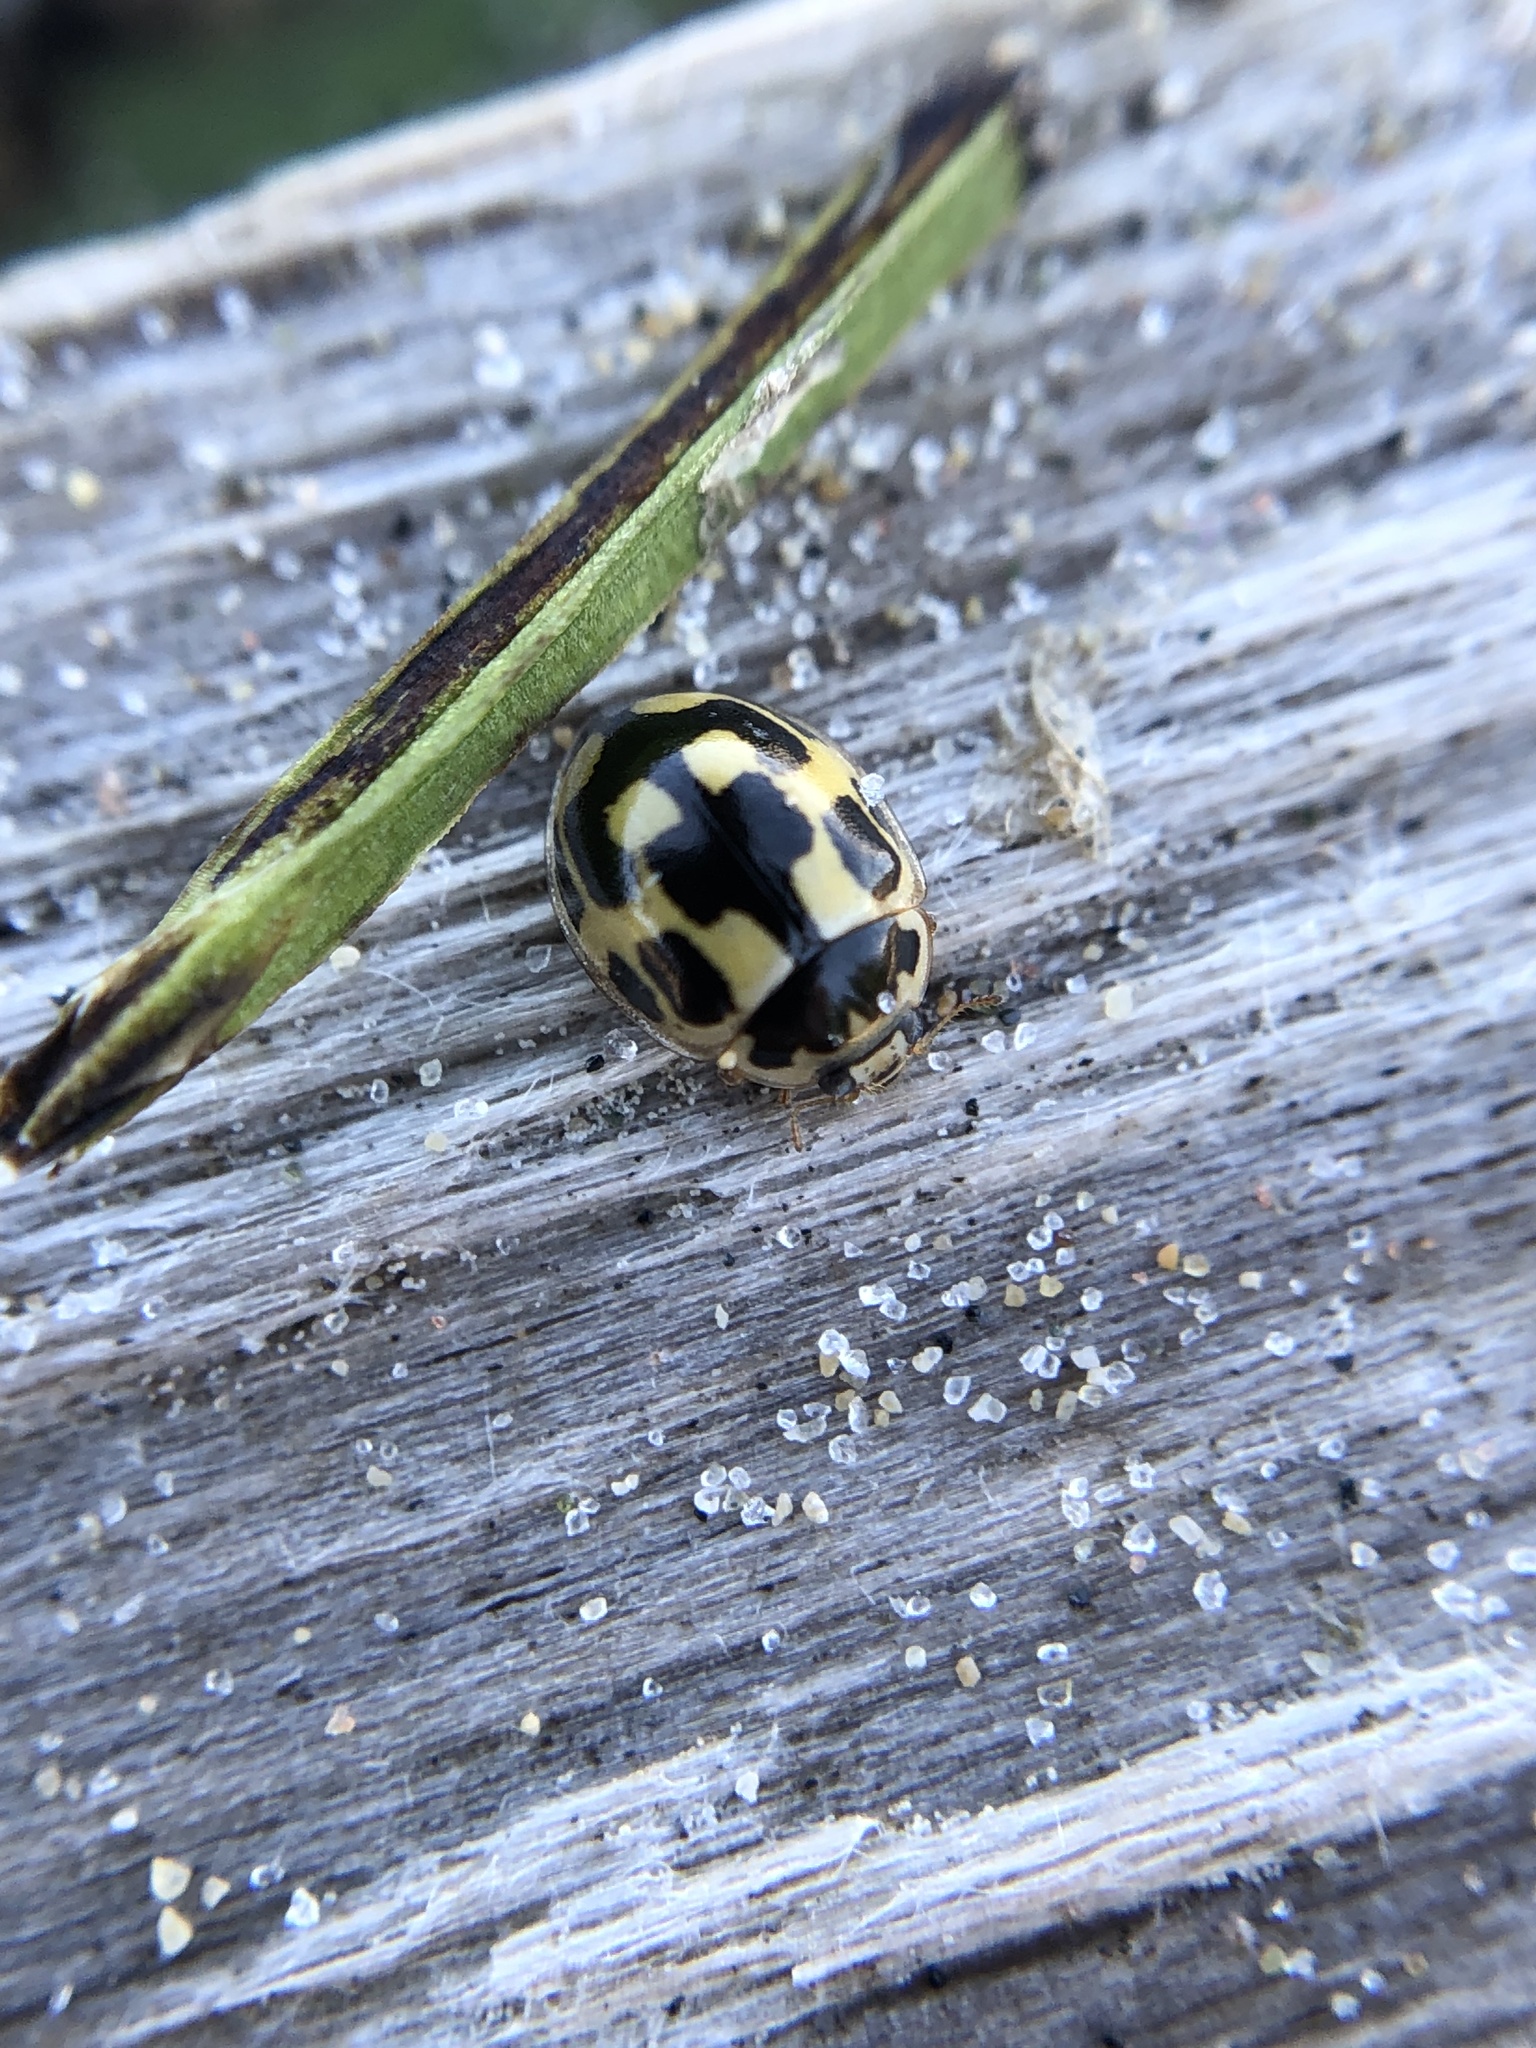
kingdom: Animalia
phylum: Arthropoda
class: Insecta
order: Coleoptera
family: Coccinellidae
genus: Propylaea
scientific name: Propylaea quatuordecimpunctata
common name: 14-spotted ladybird beetle
